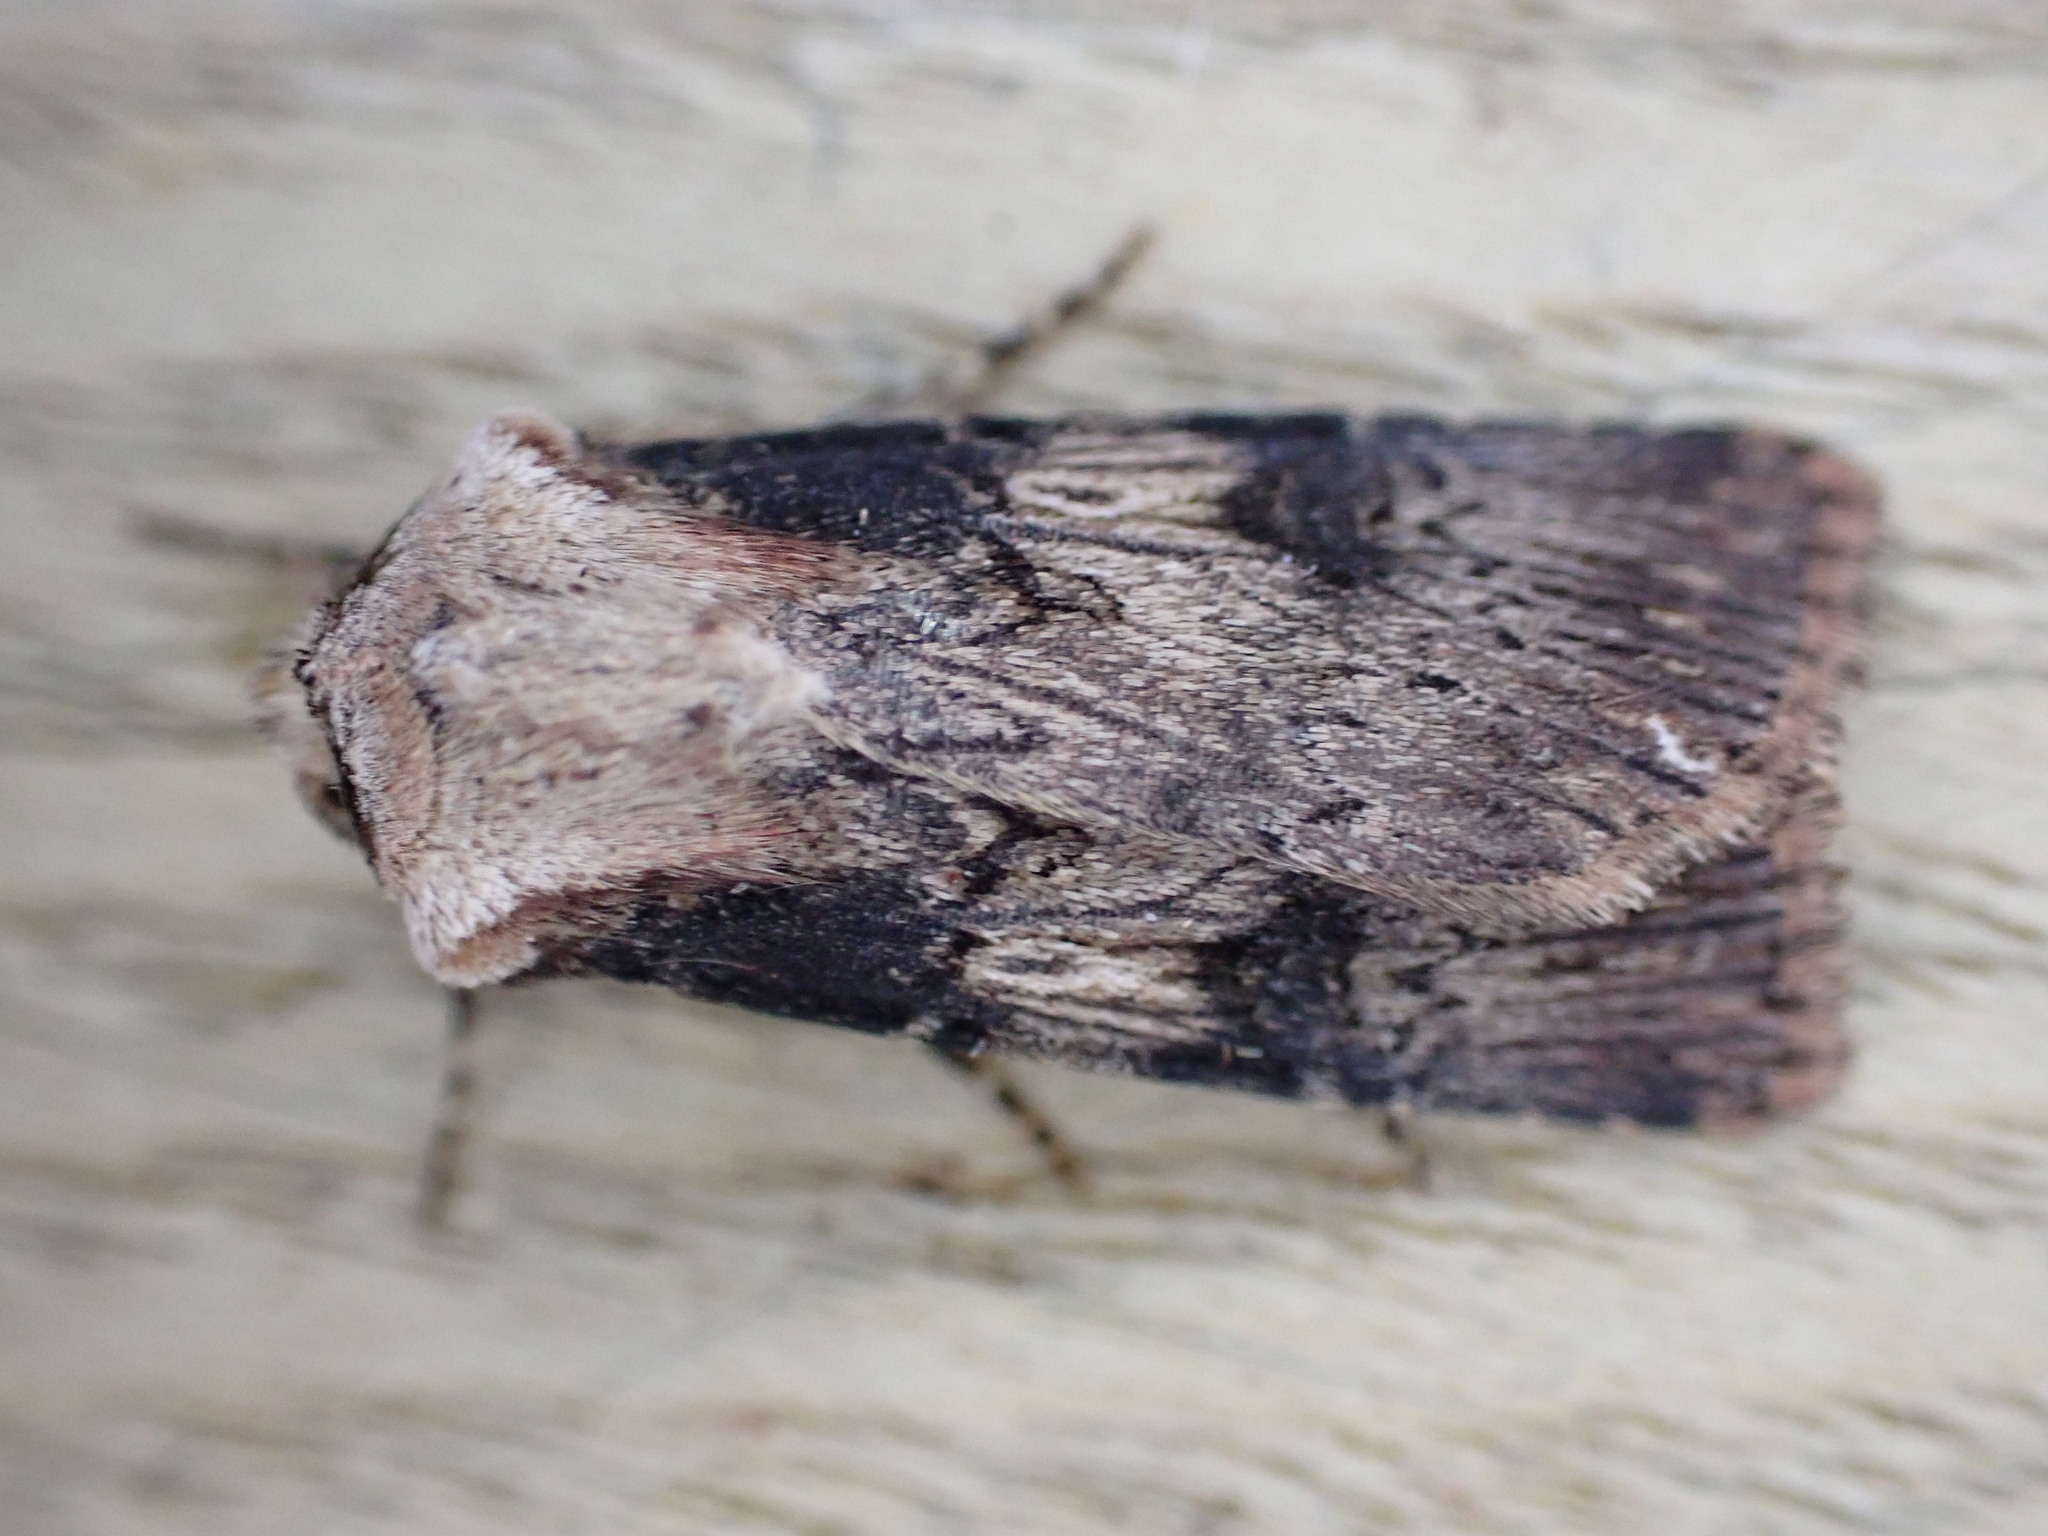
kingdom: Animalia
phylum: Arthropoda
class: Insecta
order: Lepidoptera
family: Noctuidae
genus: Agrotis
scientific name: Agrotis puta
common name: Shuttle-shaped dart
